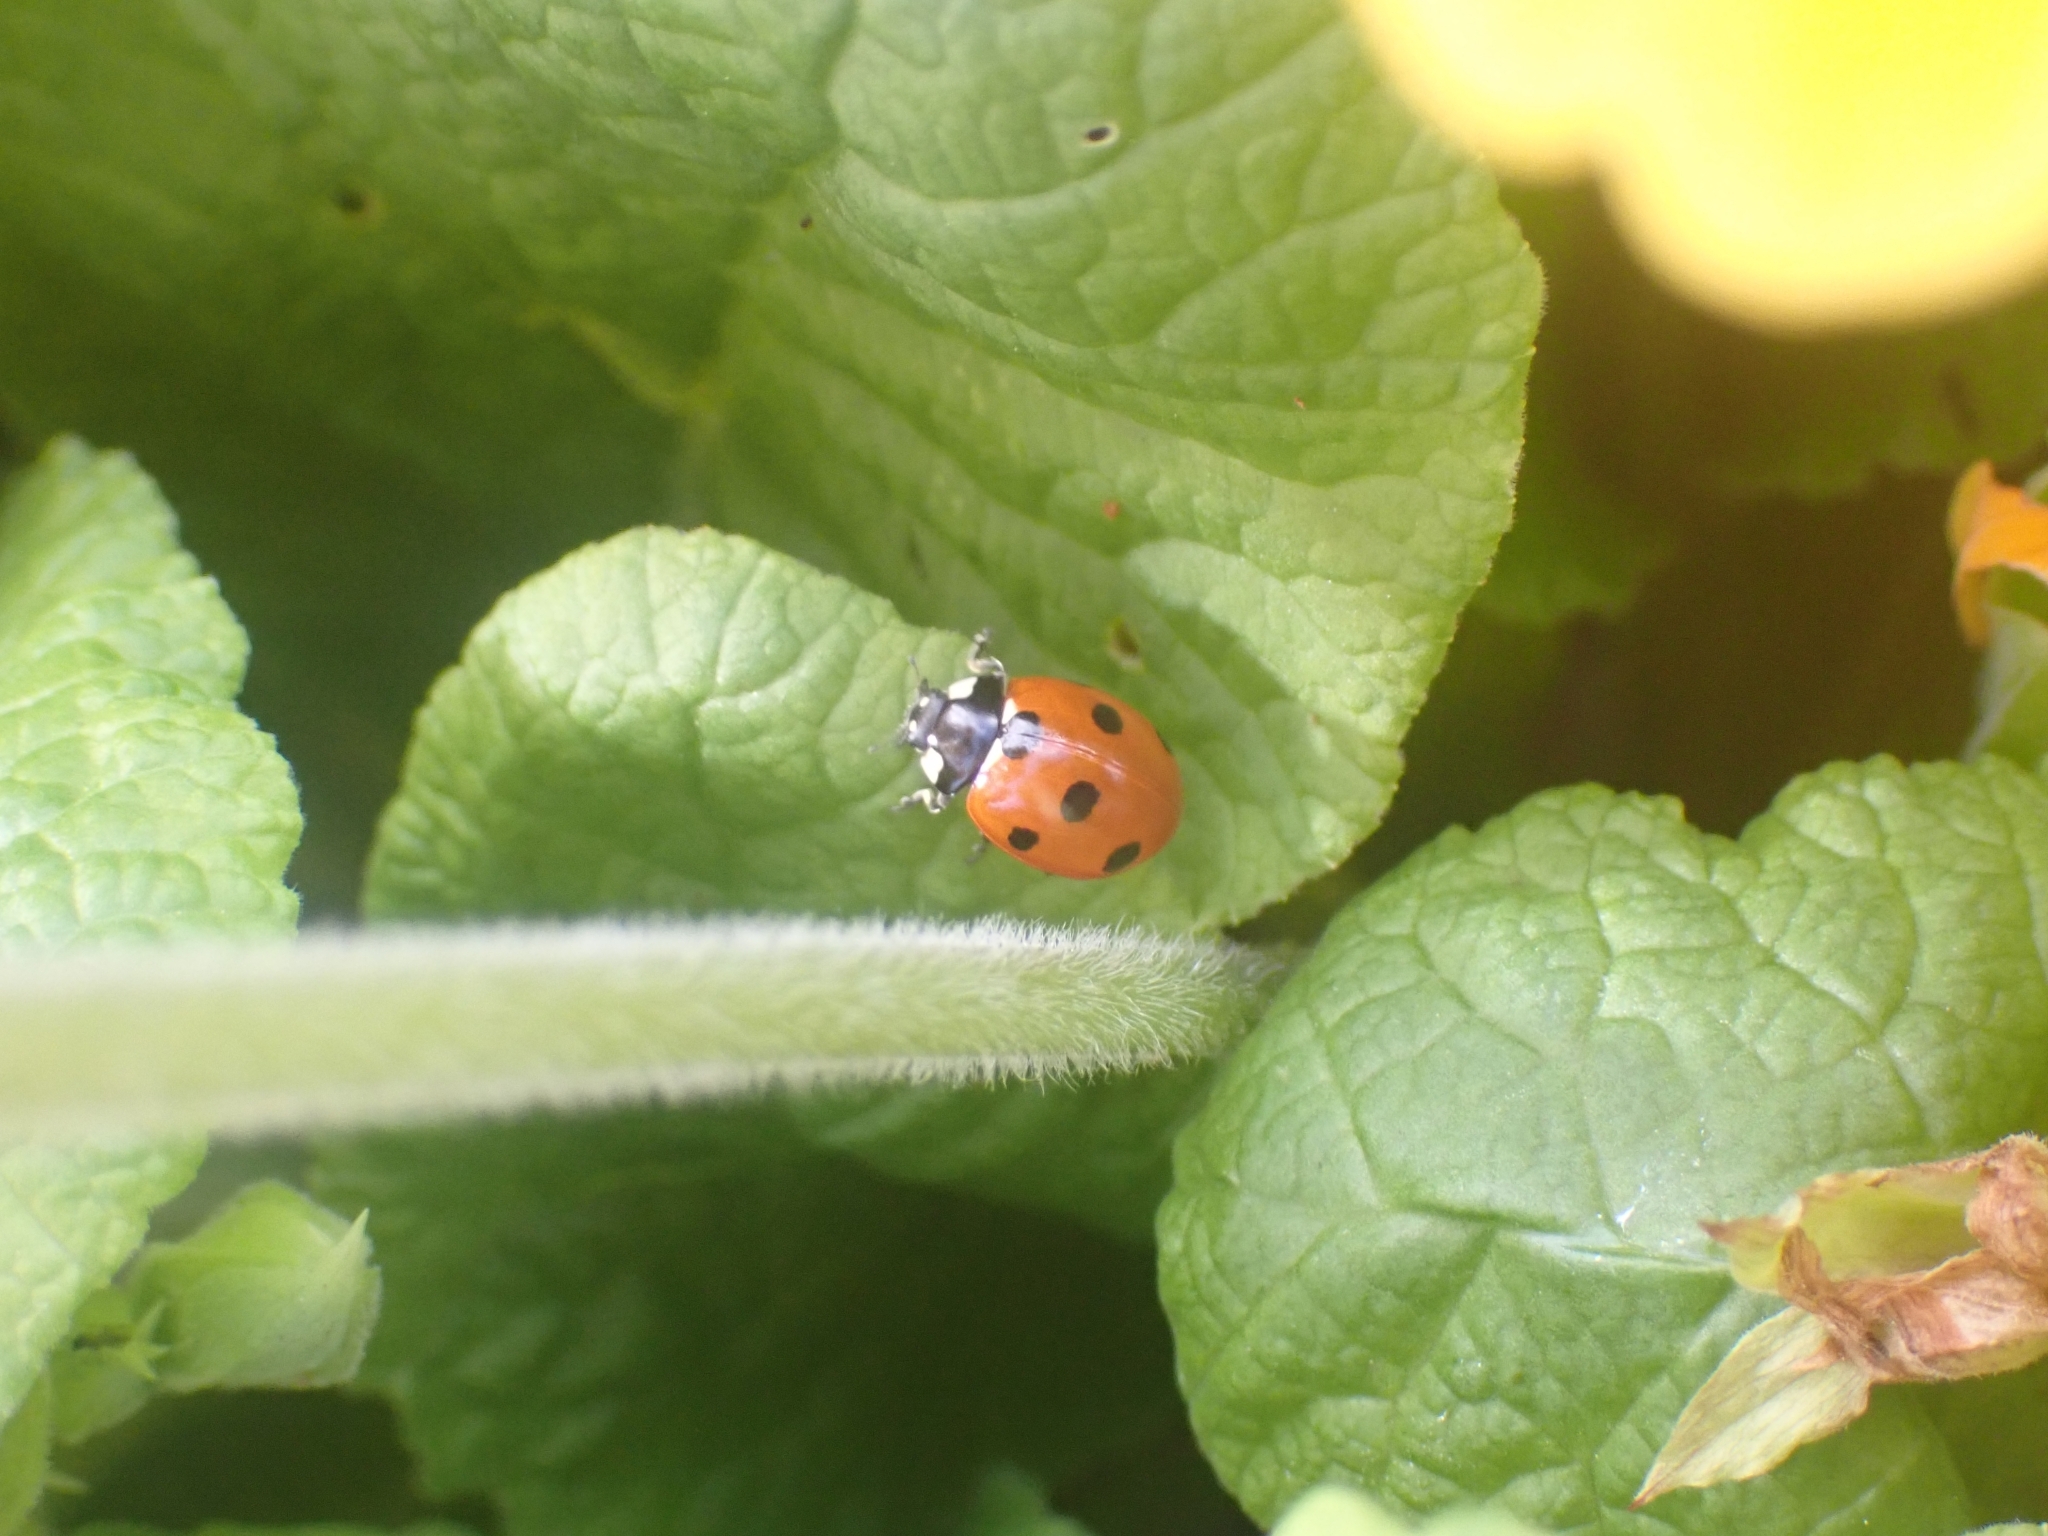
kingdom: Animalia
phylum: Arthropoda
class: Insecta
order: Coleoptera
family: Coccinellidae
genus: Coccinella
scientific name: Coccinella septempunctata
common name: Sevenspotted lady beetle
